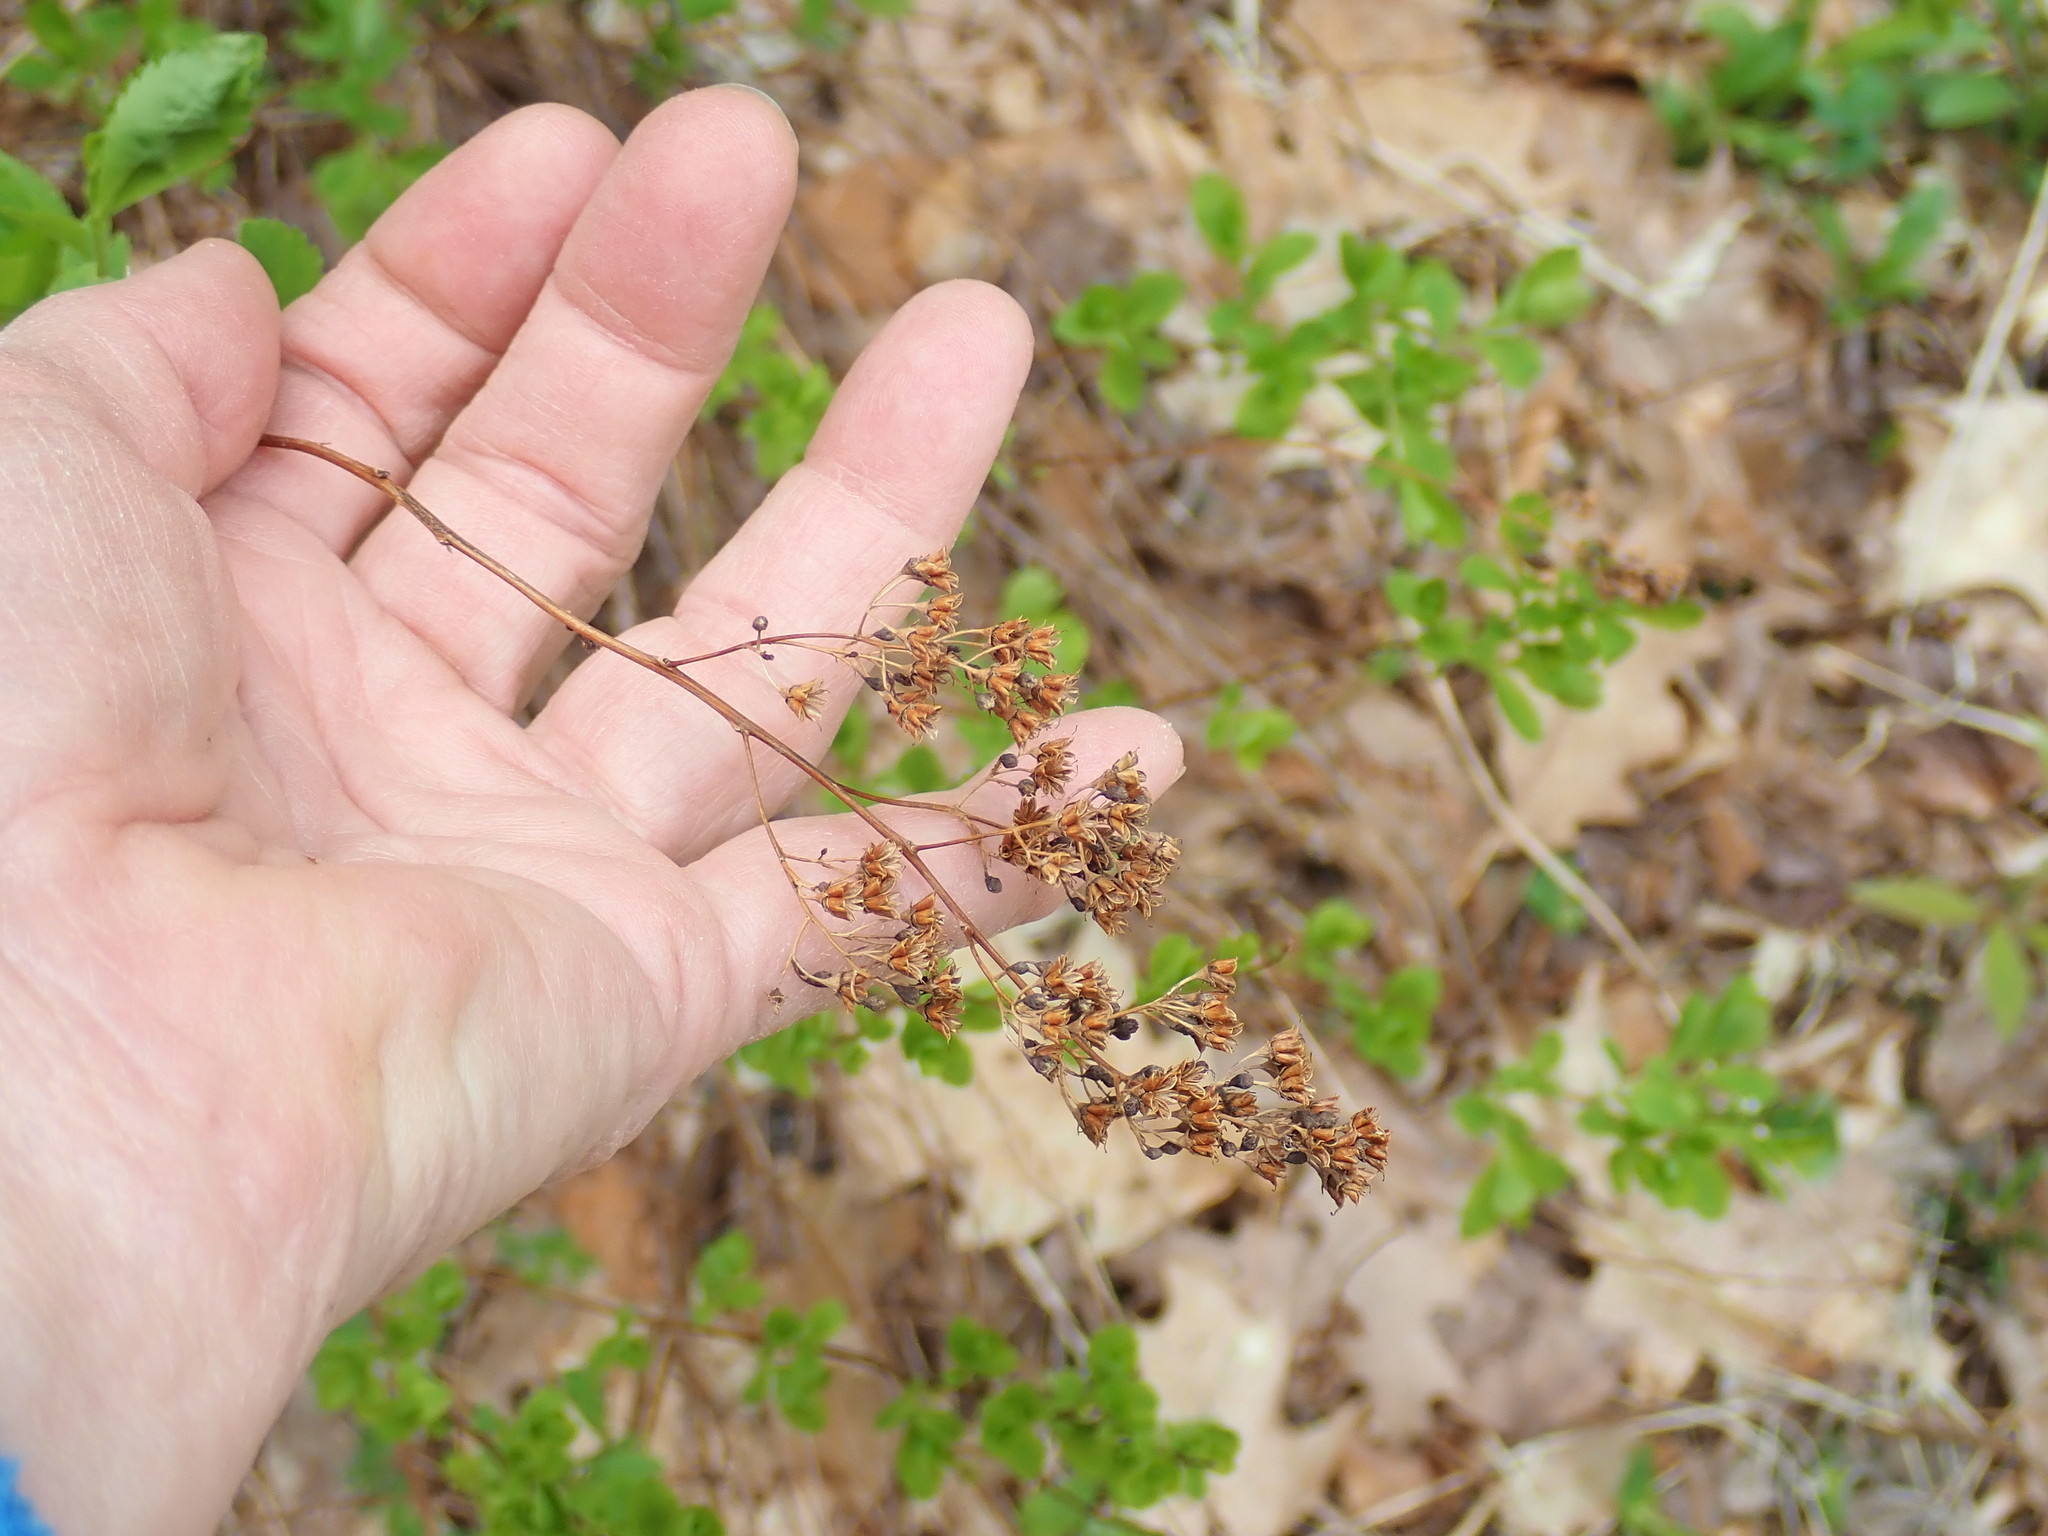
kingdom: Plantae
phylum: Tracheophyta
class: Magnoliopsida
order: Rosales
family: Rosaceae
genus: Spiraea
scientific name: Spiraea alba
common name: Pale bridewort
